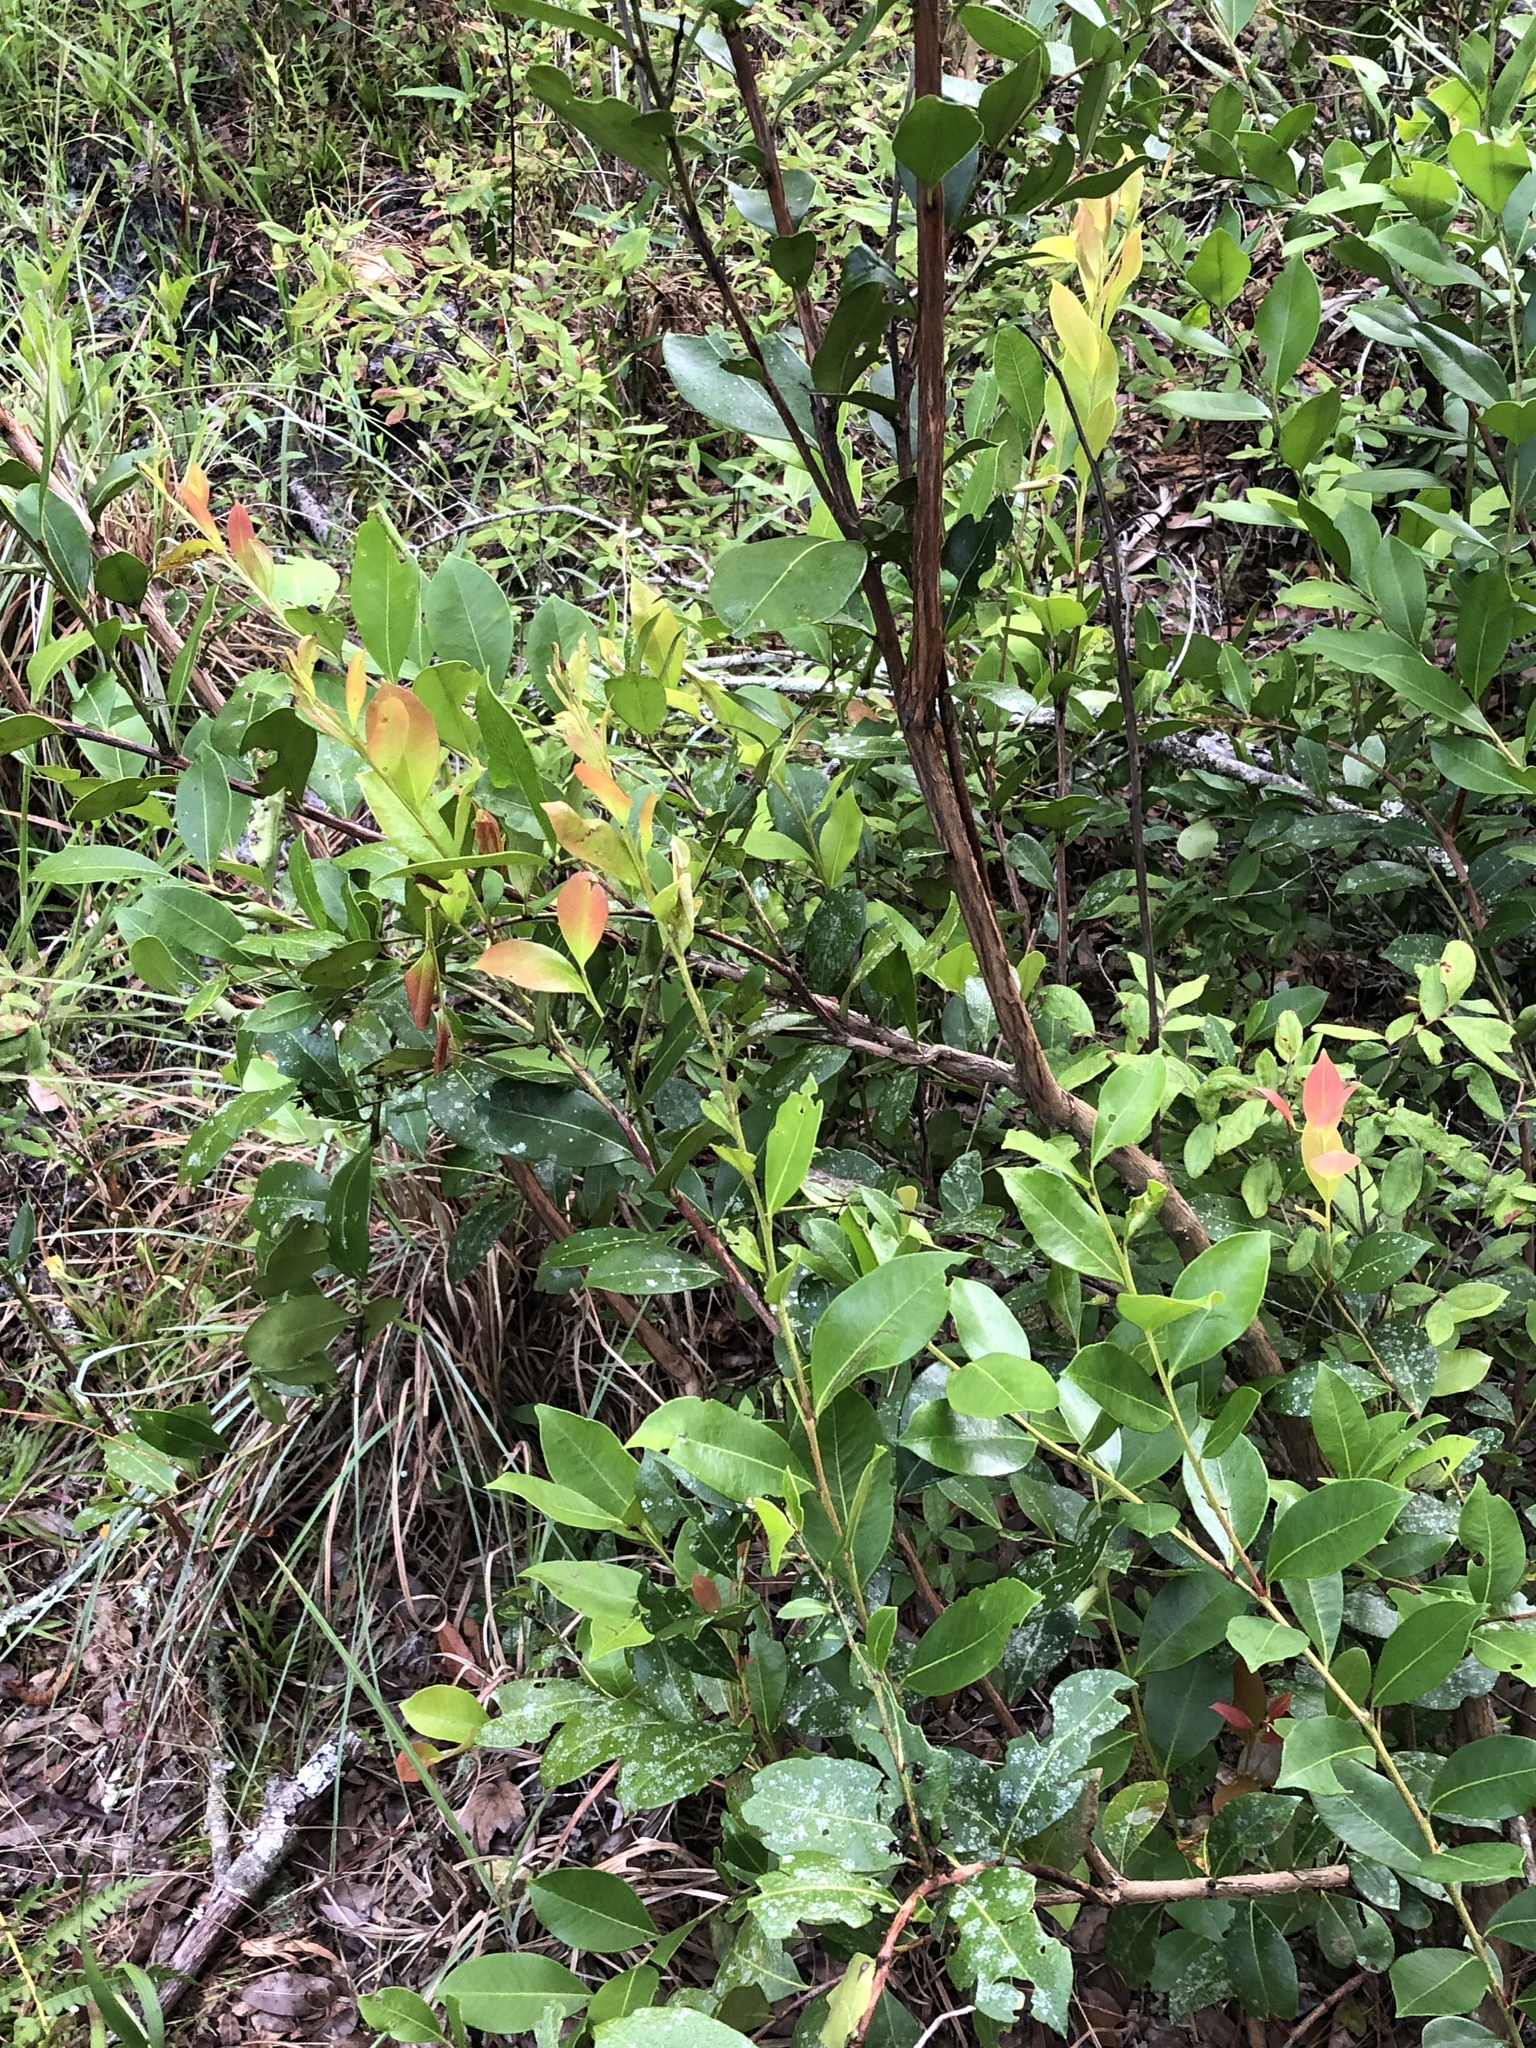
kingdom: Plantae
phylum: Tracheophyta
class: Magnoliopsida
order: Ericales
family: Ericaceae
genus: Lyonia
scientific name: Lyonia lucida
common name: Fetterbush
